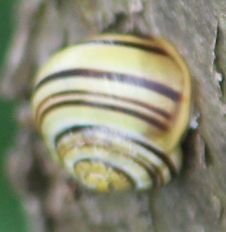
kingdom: Animalia
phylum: Mollusca
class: Gastropoda
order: Stylommatophora
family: Helicidae
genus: Cepaea
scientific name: Cepaea
